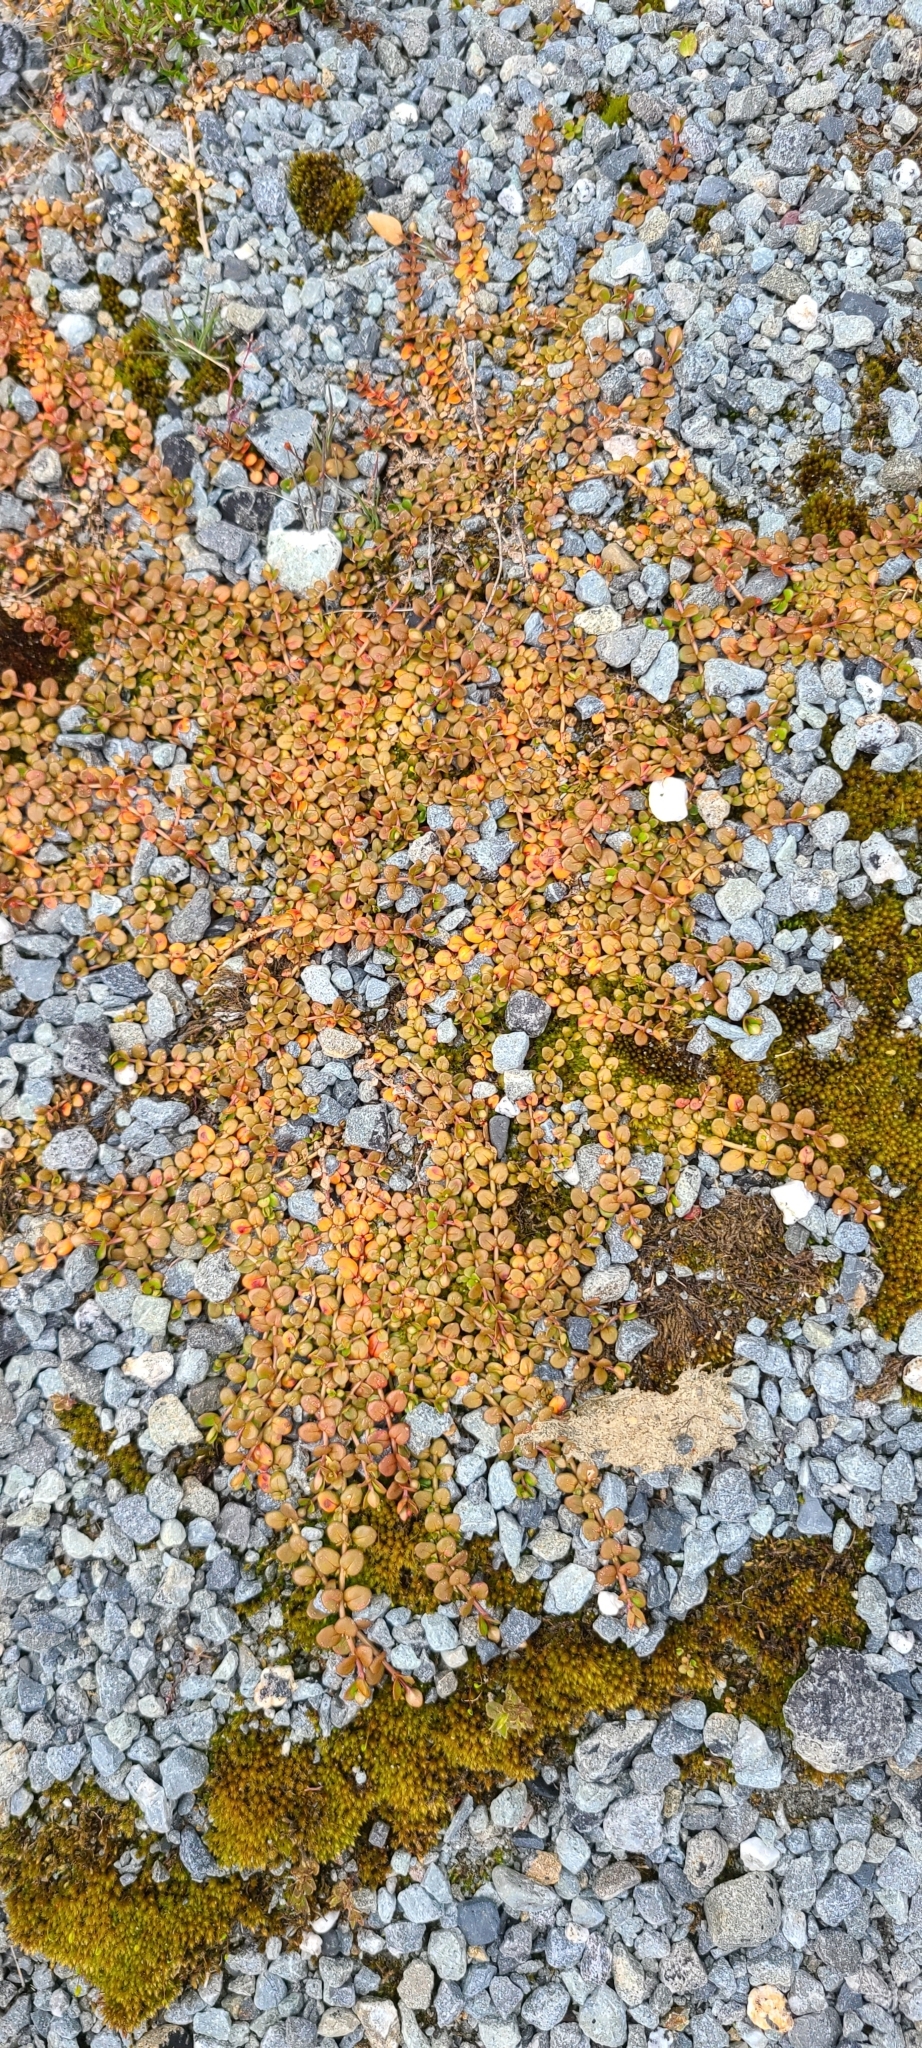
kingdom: Plantae
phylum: Tracheophyta
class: Magnoliopsida
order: Myrtales
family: Onagraceae
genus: Epilobium
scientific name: Epilobium brunnescens
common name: New zealand willowherb
